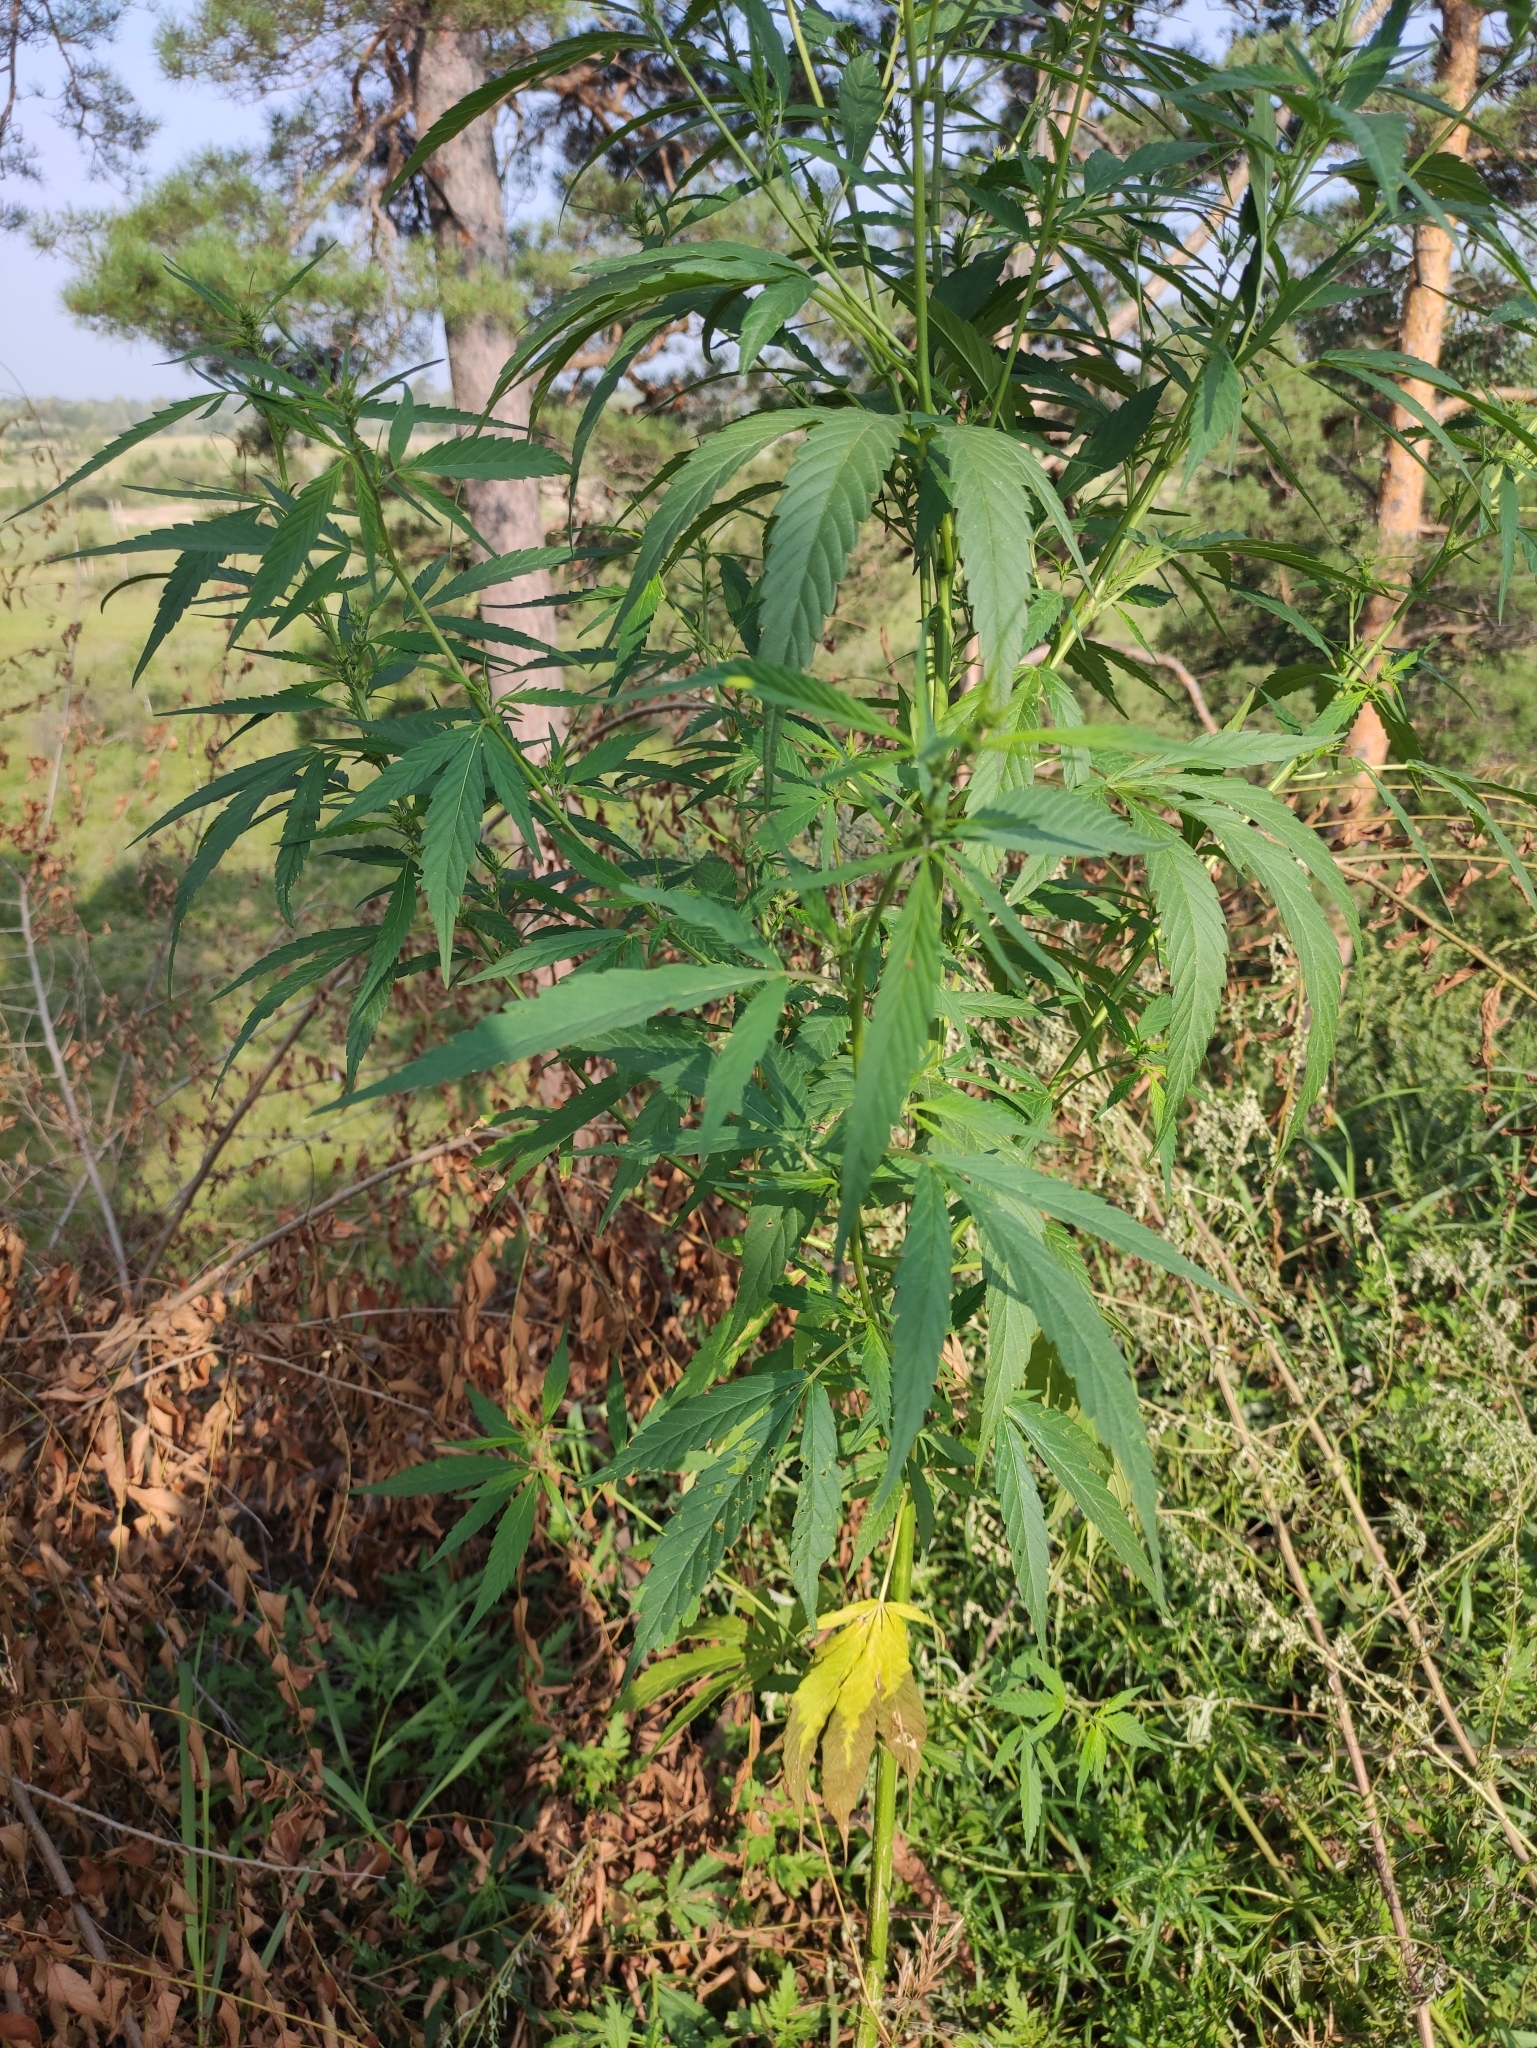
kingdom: Plantae
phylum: Tracheophyta
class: Magnoliopsida
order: Rosales
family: Cannabaceae
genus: Cannabis
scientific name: Cannabis sativa
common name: Hemp
